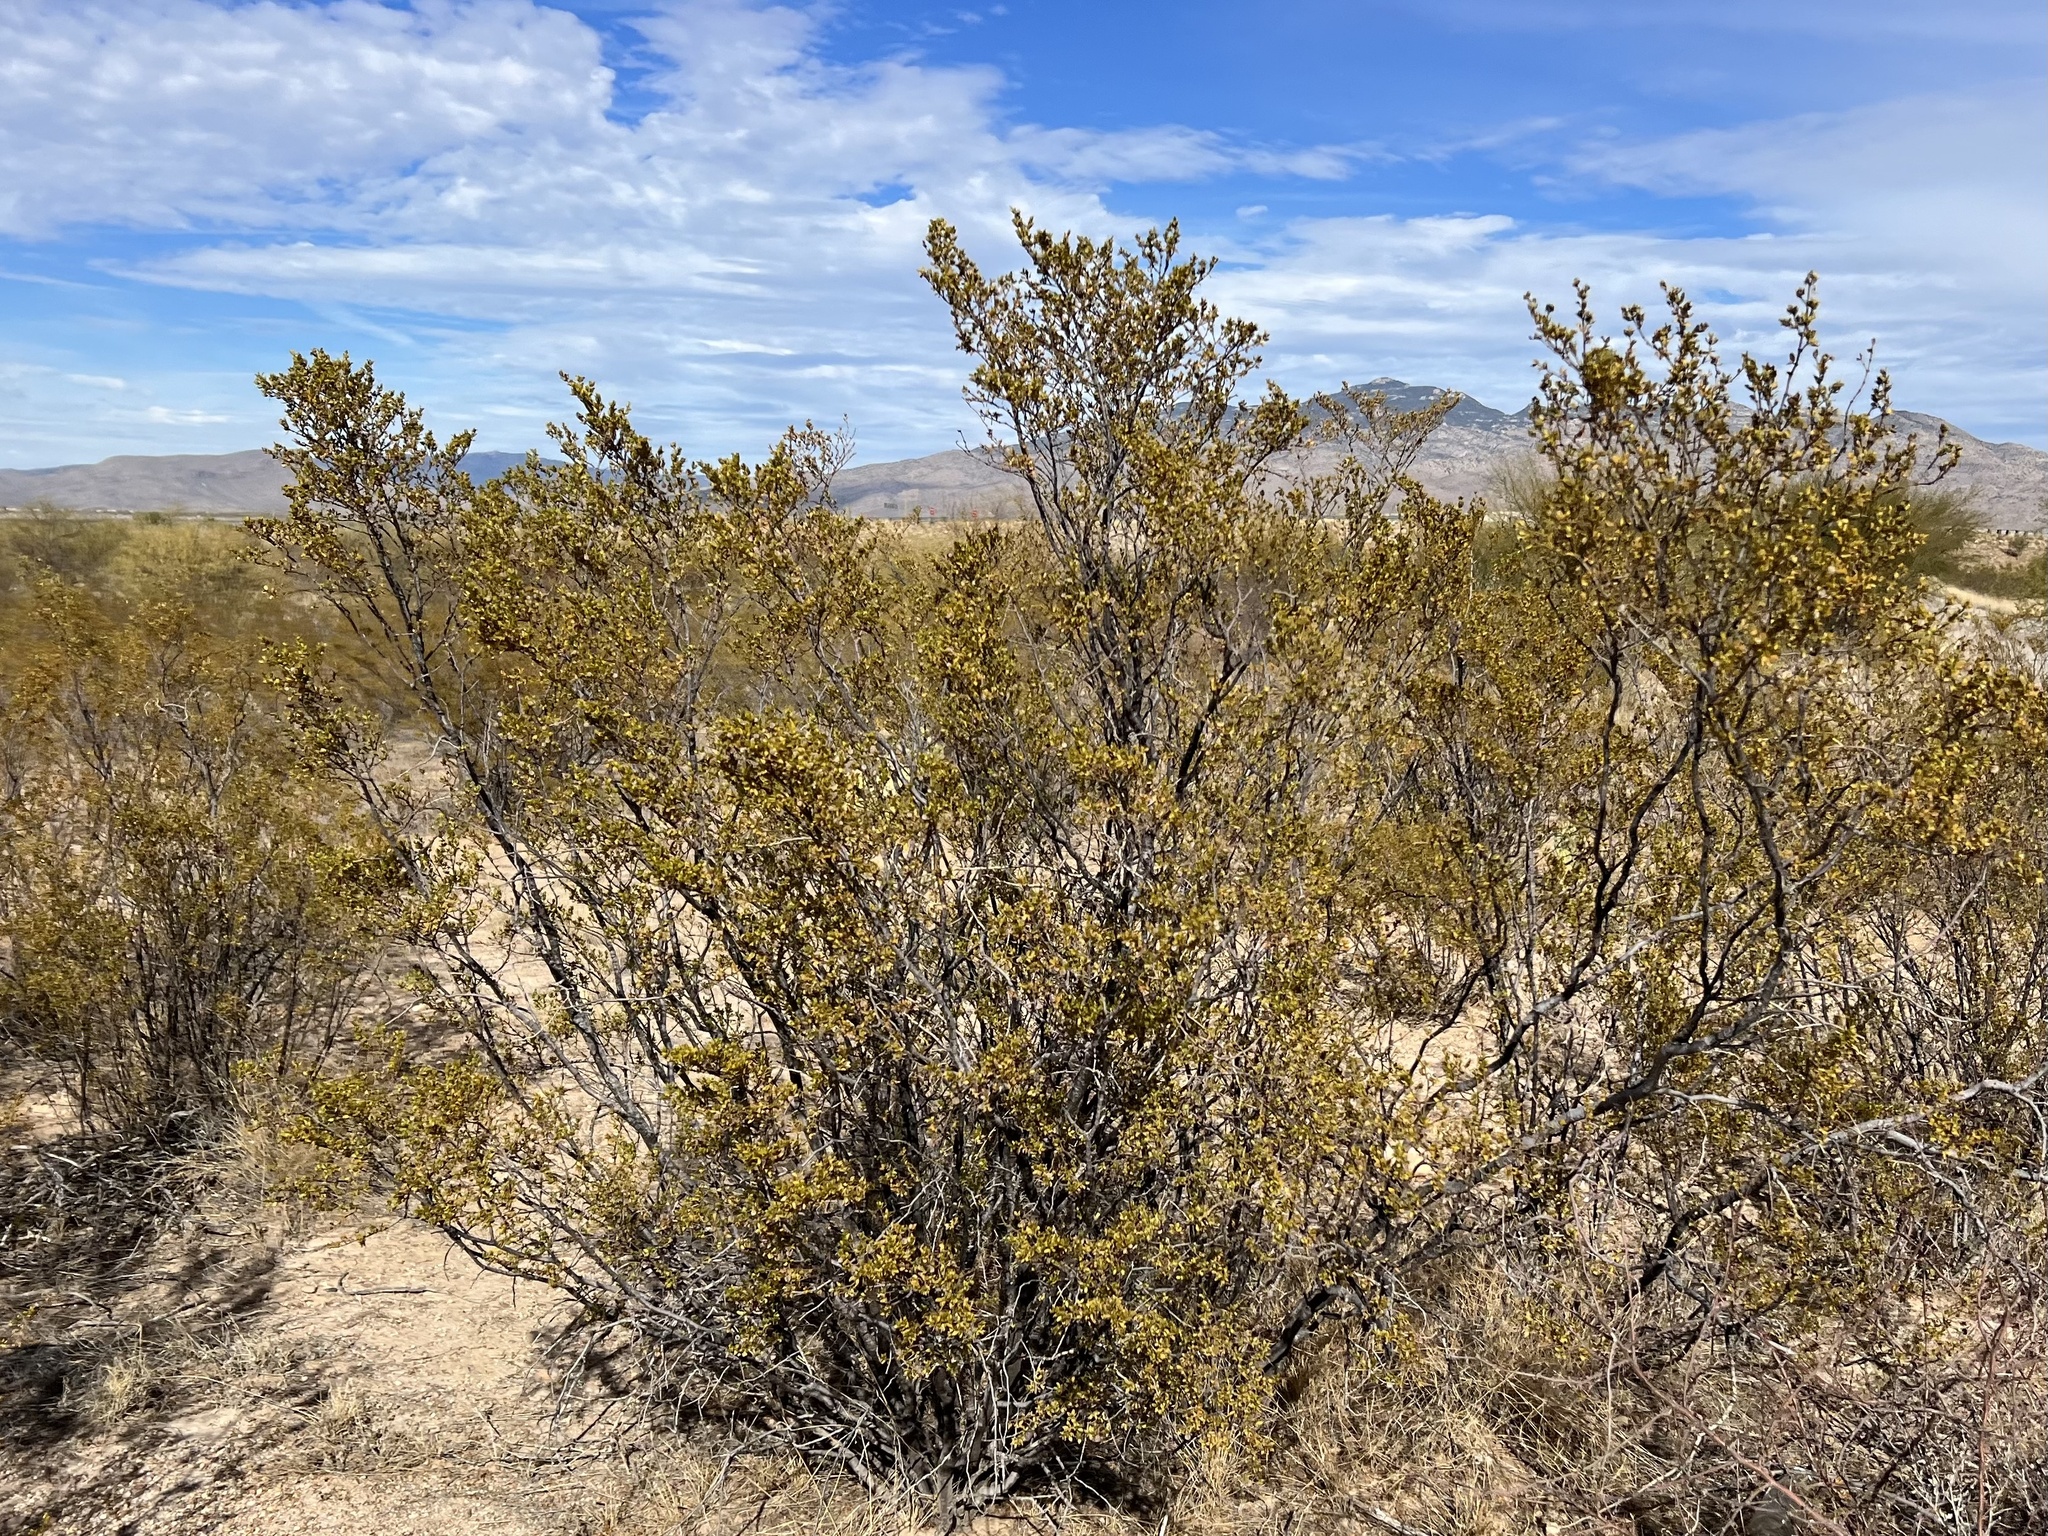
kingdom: Plantae
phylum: Tracheophyta
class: Magnoliopsida
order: Zygophyllales
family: Zygophyllaceae
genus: Larrea
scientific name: Larrea tridentata
